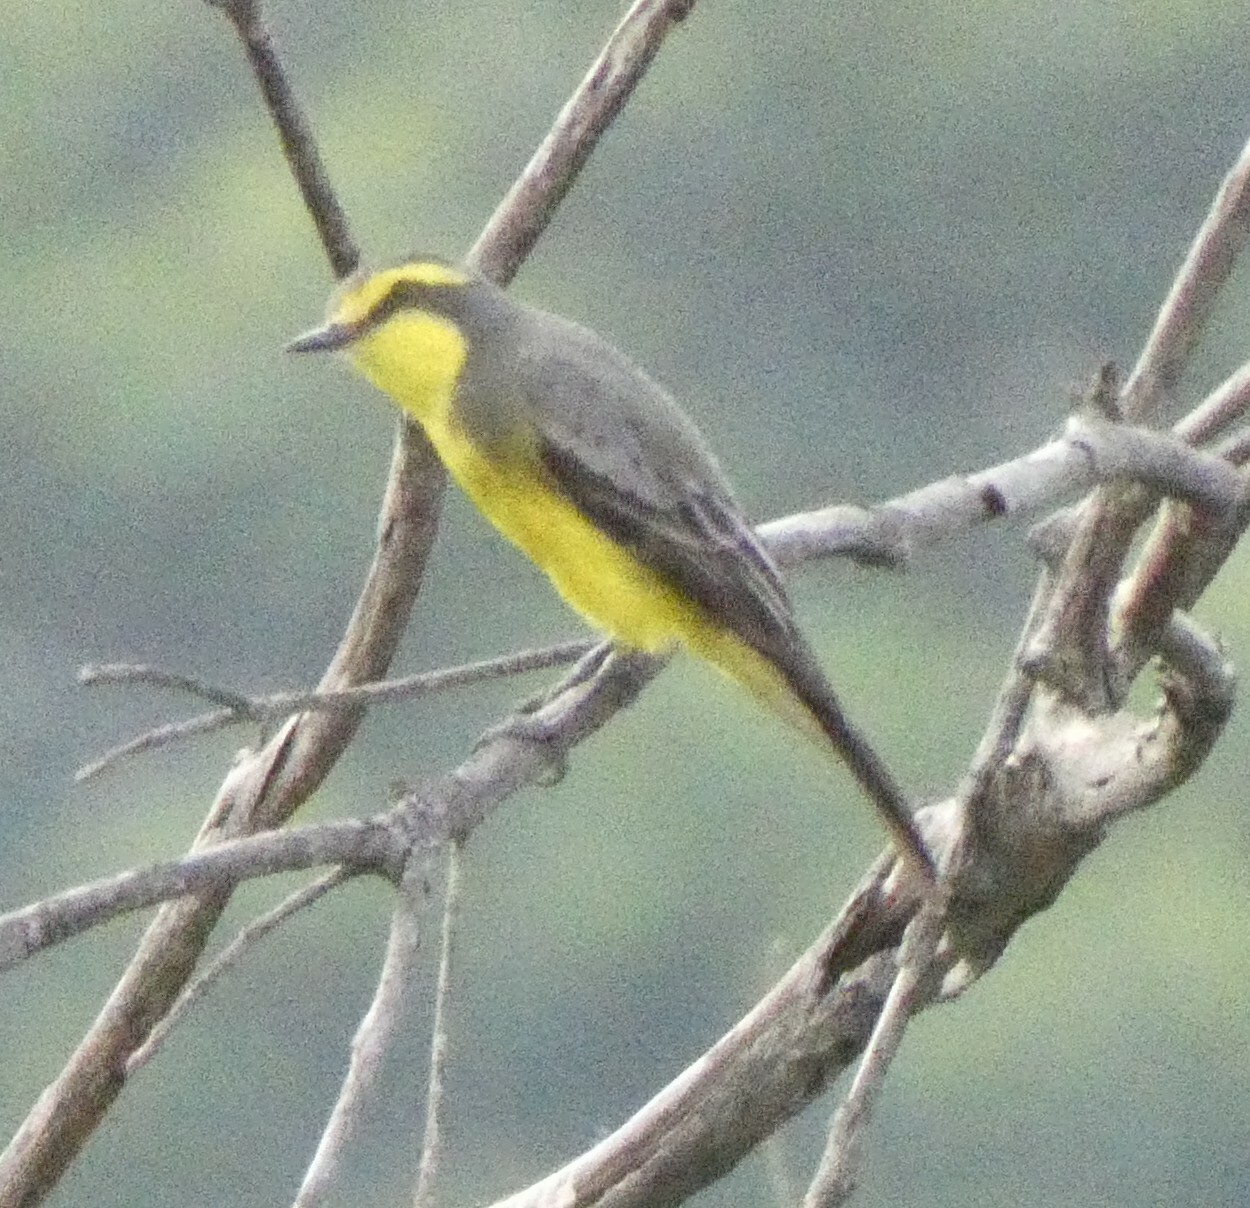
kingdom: Animalia
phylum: Chordata
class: Aves
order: Passeriformes
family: Tyrannidae
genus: Satrapa
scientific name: Satrapa icterophrys
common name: Yellow-browed tyrant
